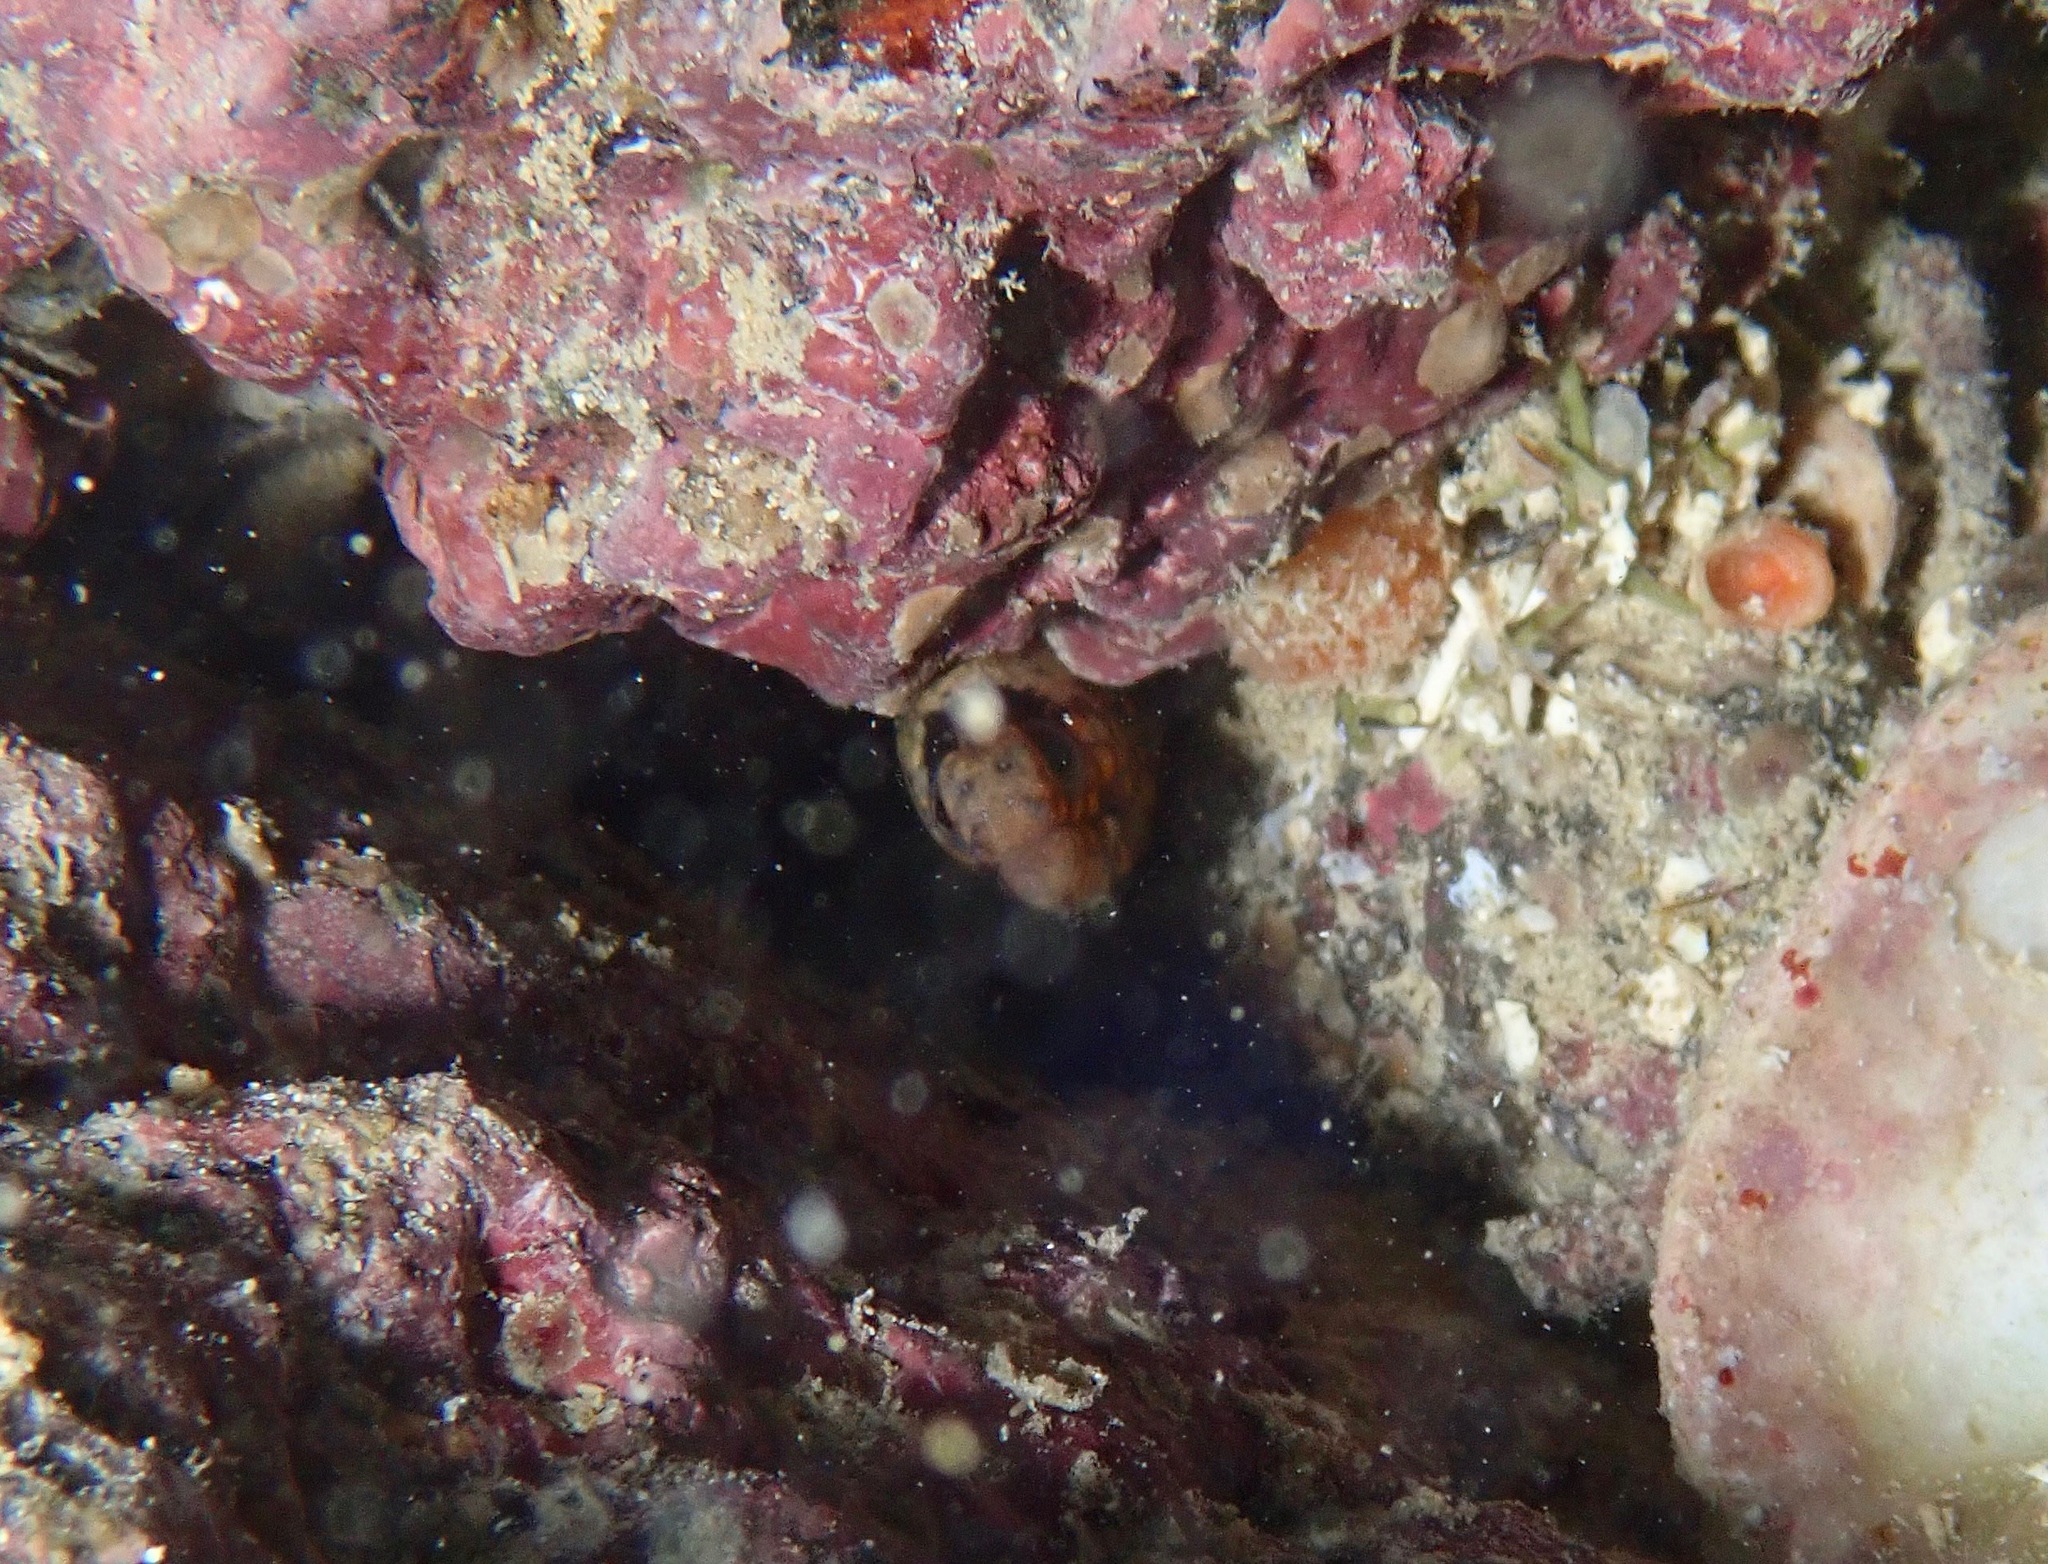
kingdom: Animalia
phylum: Chordata
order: Anguilliformes
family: Muraenidae
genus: Muraena
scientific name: Muraena lentiginosa
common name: Jewel moray
